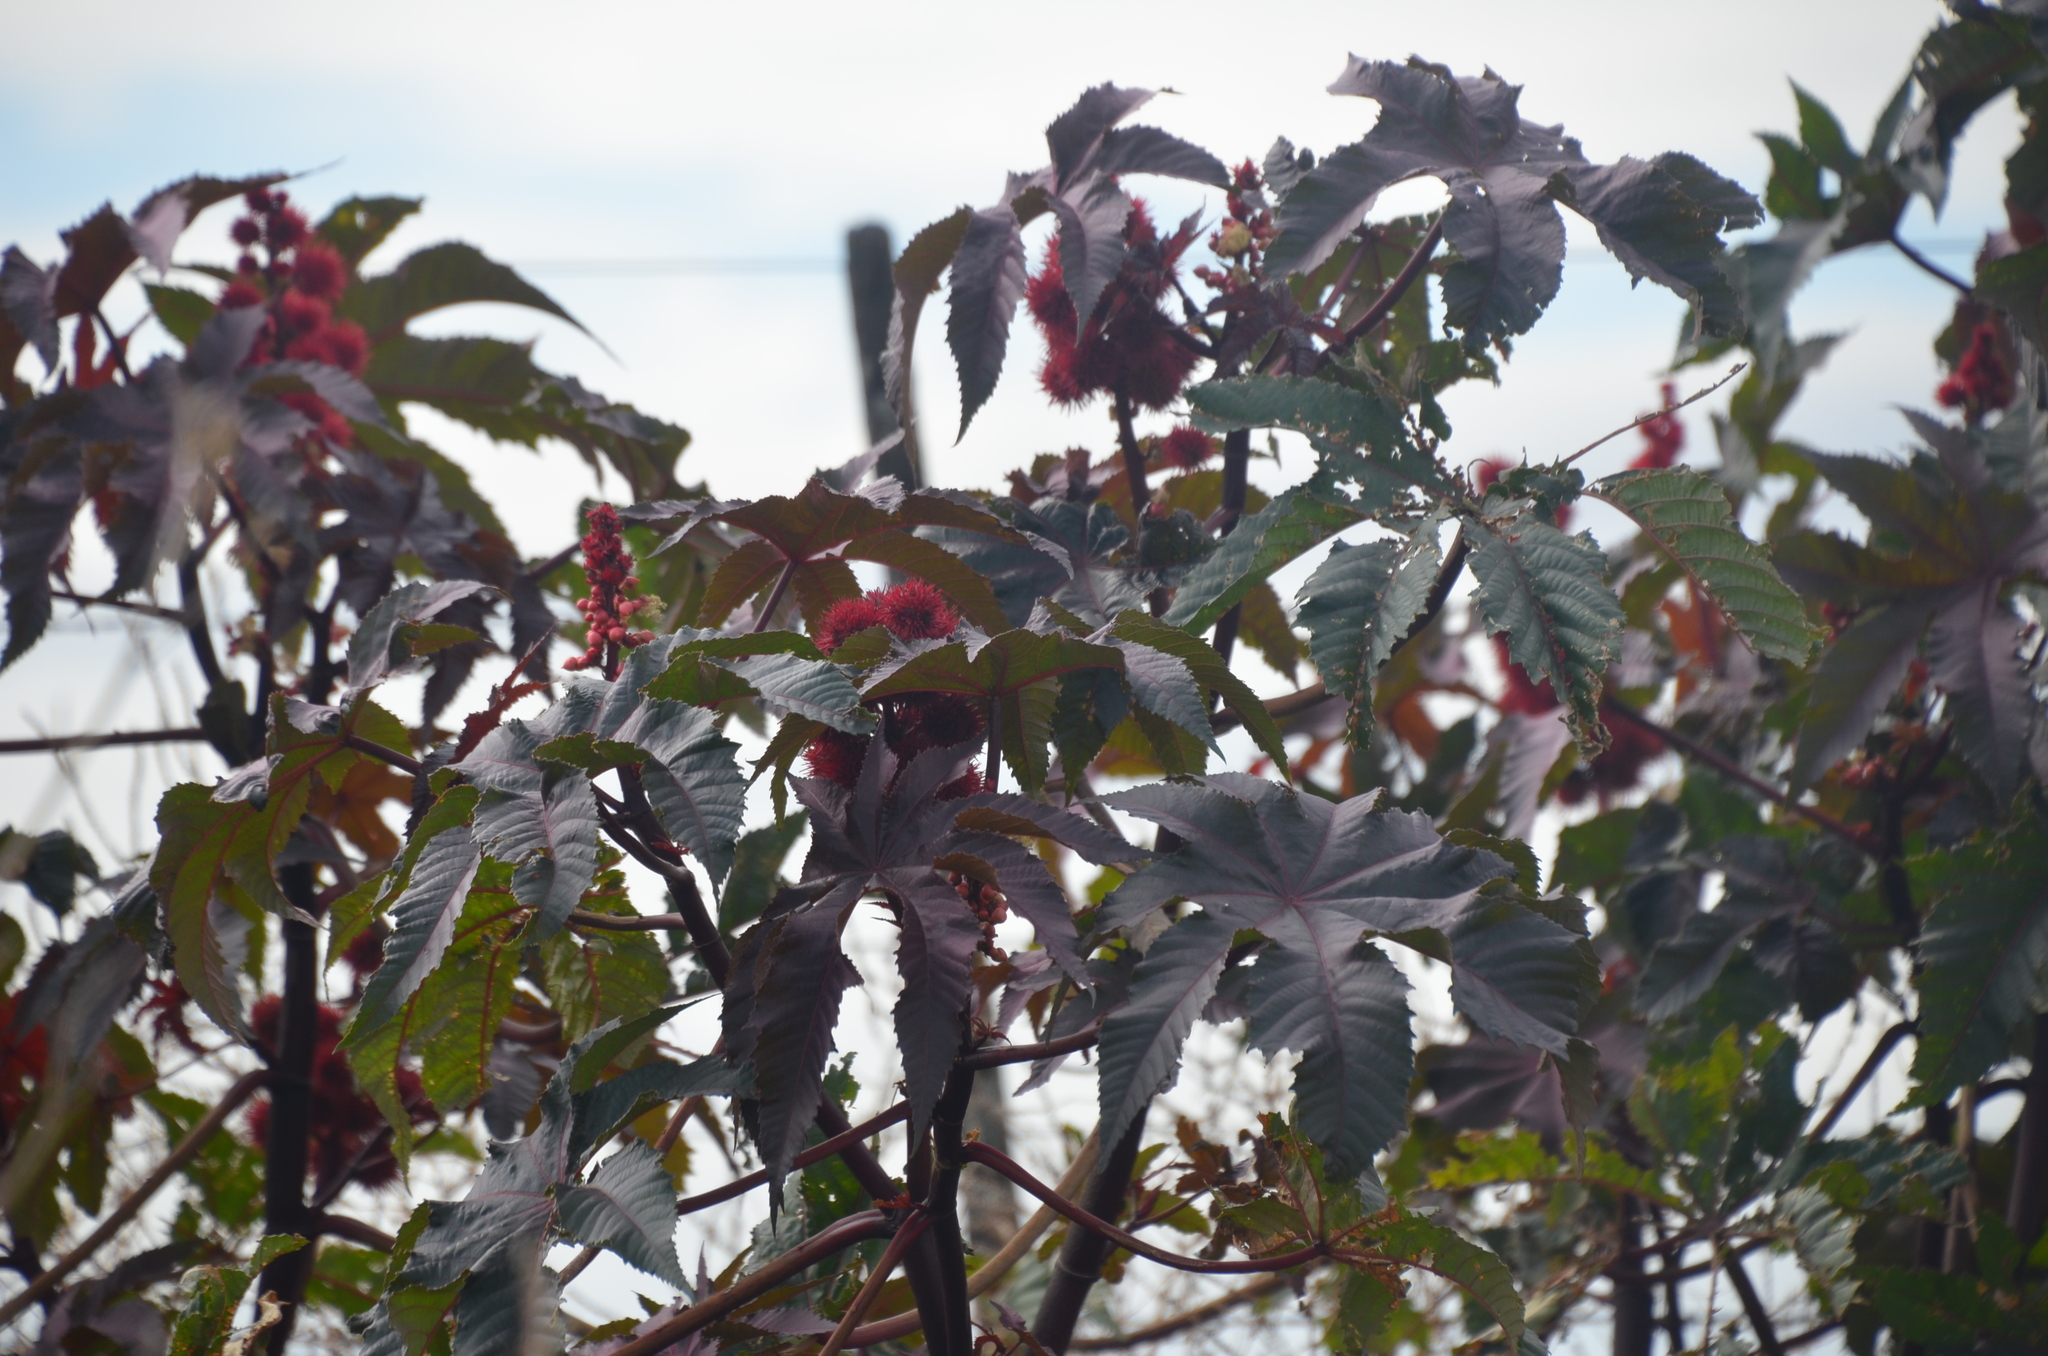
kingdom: Plantae
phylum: Tracheophyta
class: Magnoliopsida
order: Malpighiales
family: Euphorbiaceae
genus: Ricinus
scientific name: Ricinus communis
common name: Castor-oil-plant
